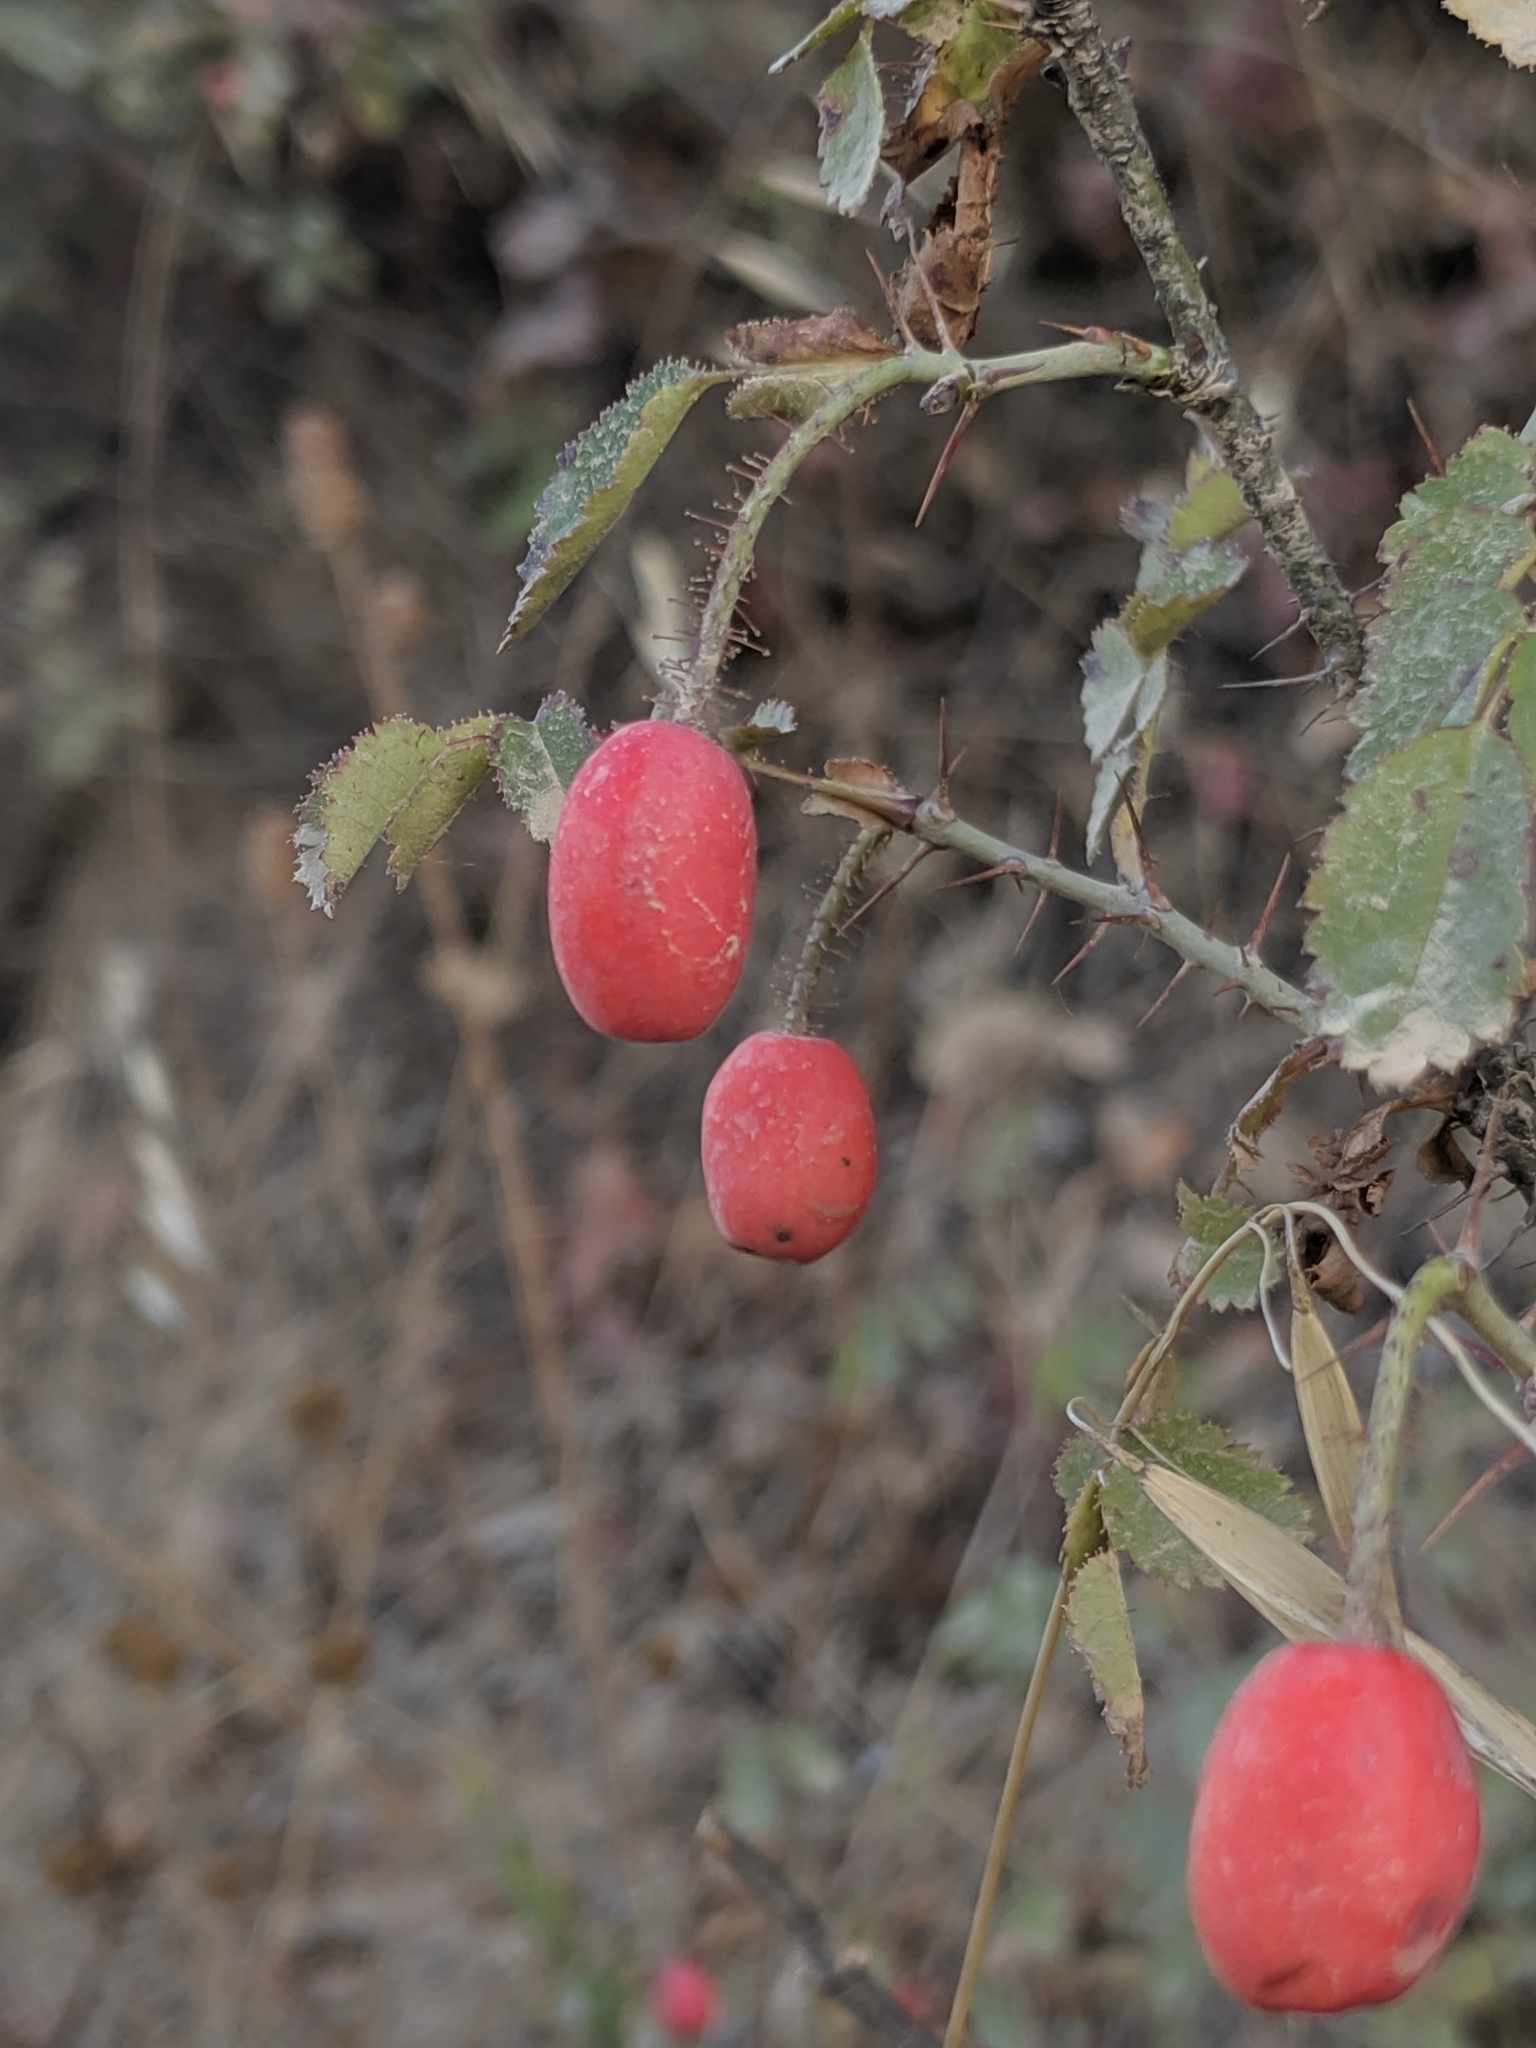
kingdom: Plantae
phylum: Tracheophyta
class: Magnoliopsida
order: Rosales
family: Rosaceae
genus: Rosa
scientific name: Rosa gymnocarpa
